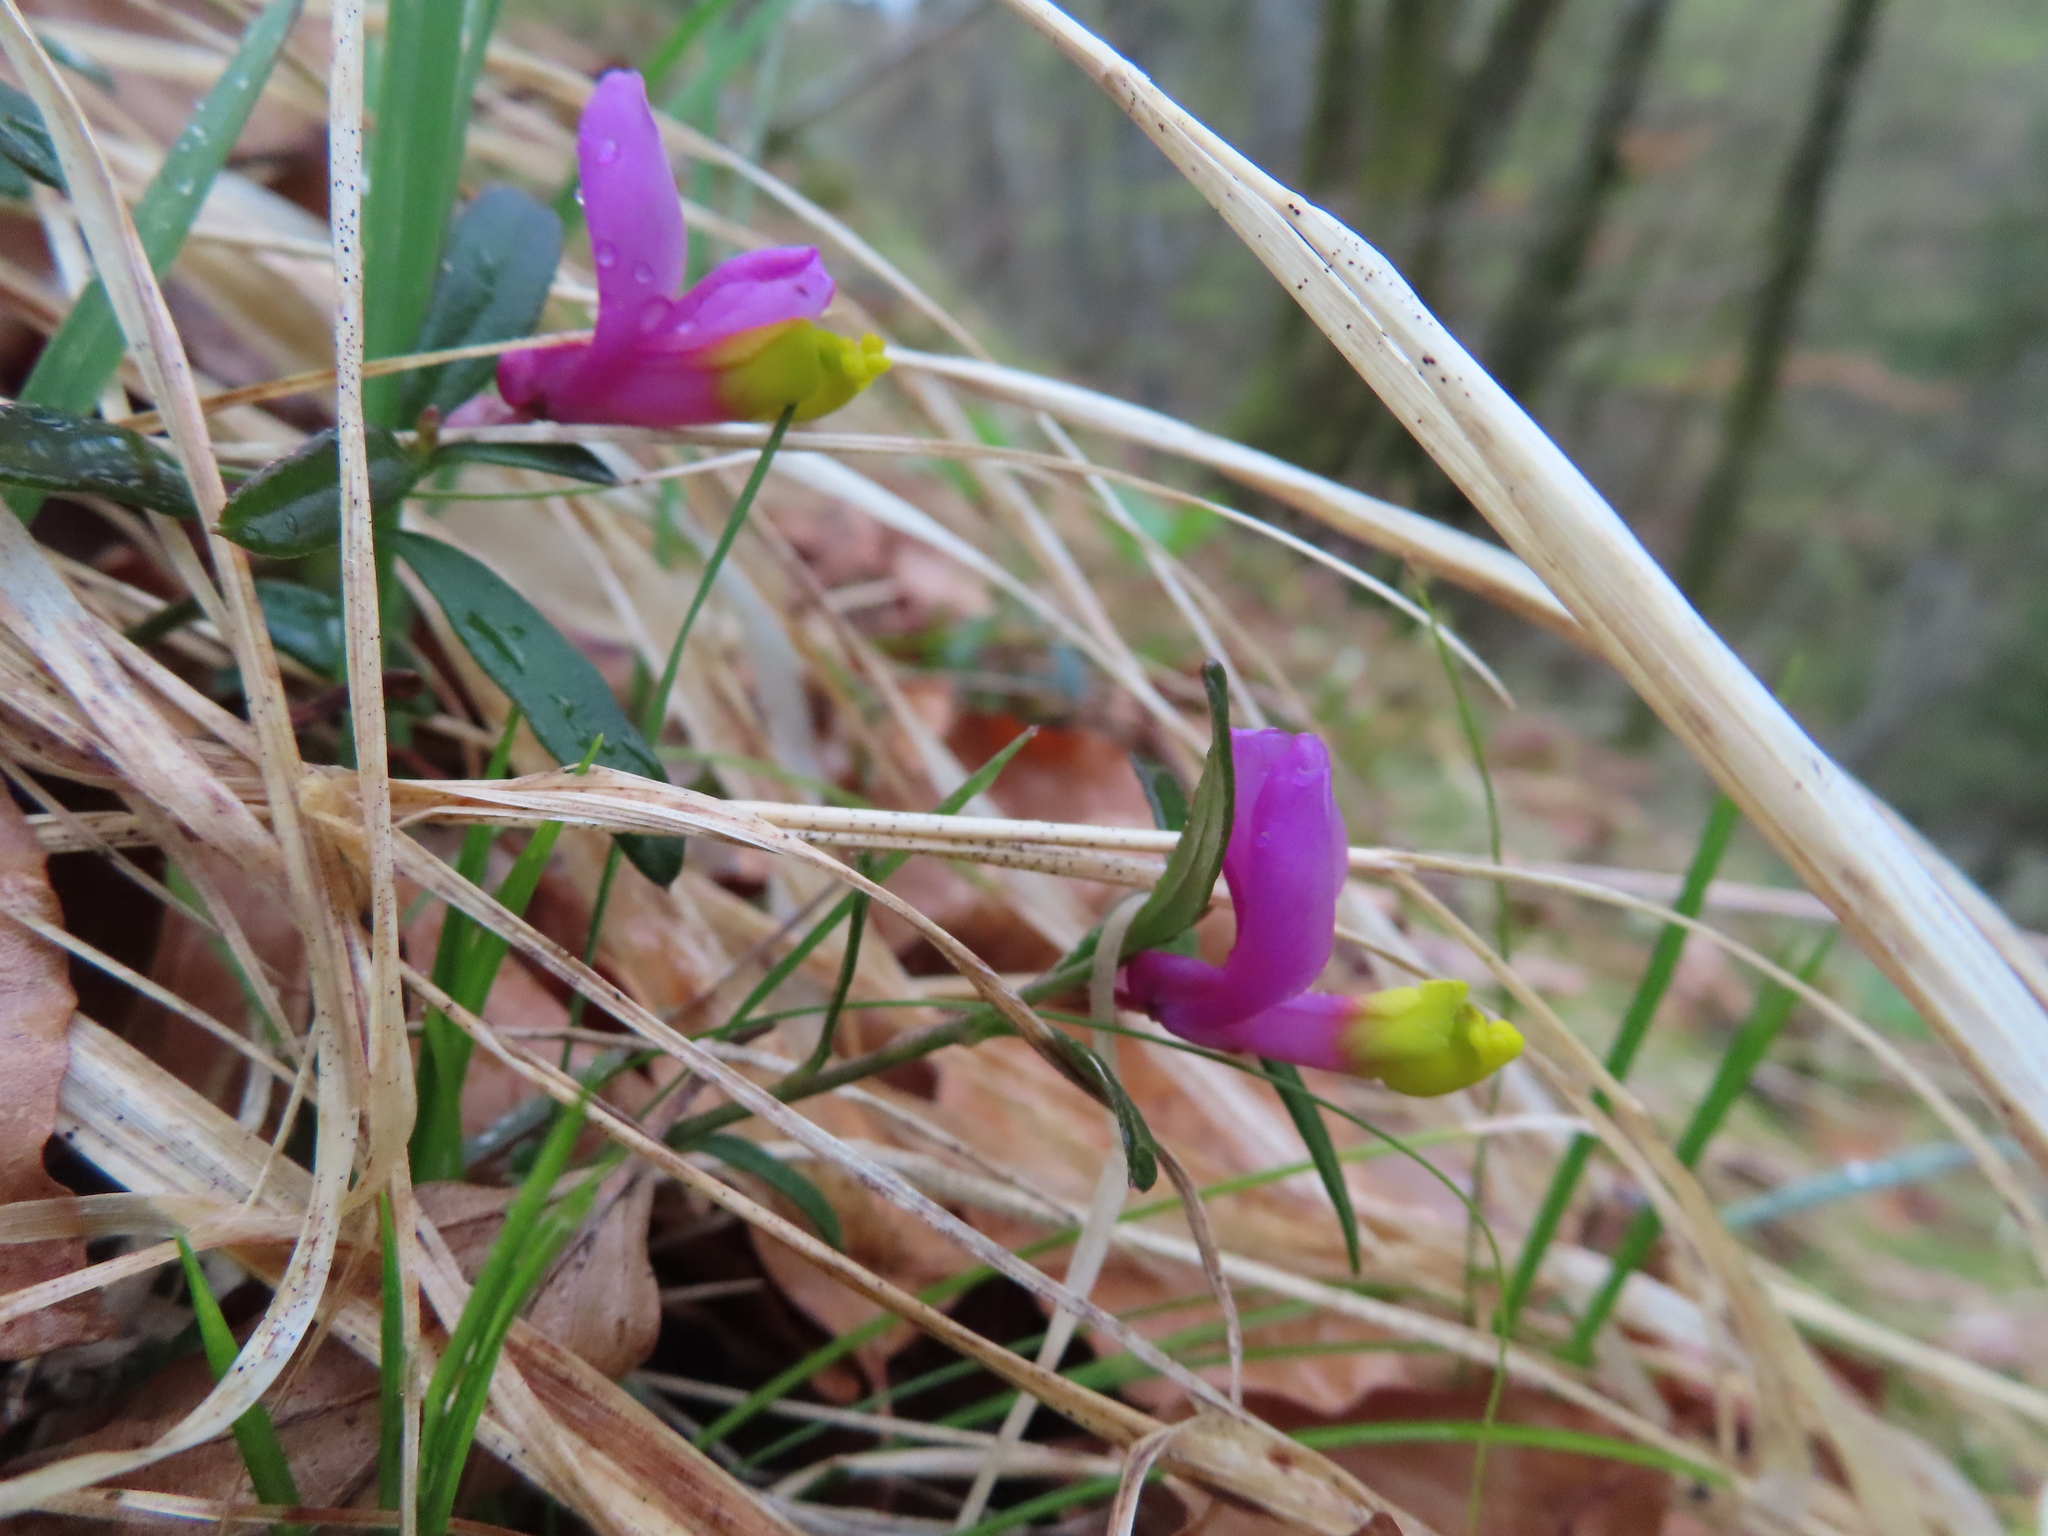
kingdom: Plantae
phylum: Tracheophyta
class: Magnoliopsida
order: Fabales
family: Polygalaceae
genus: Polygaloides
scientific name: Polygaloides chamaebuxus
